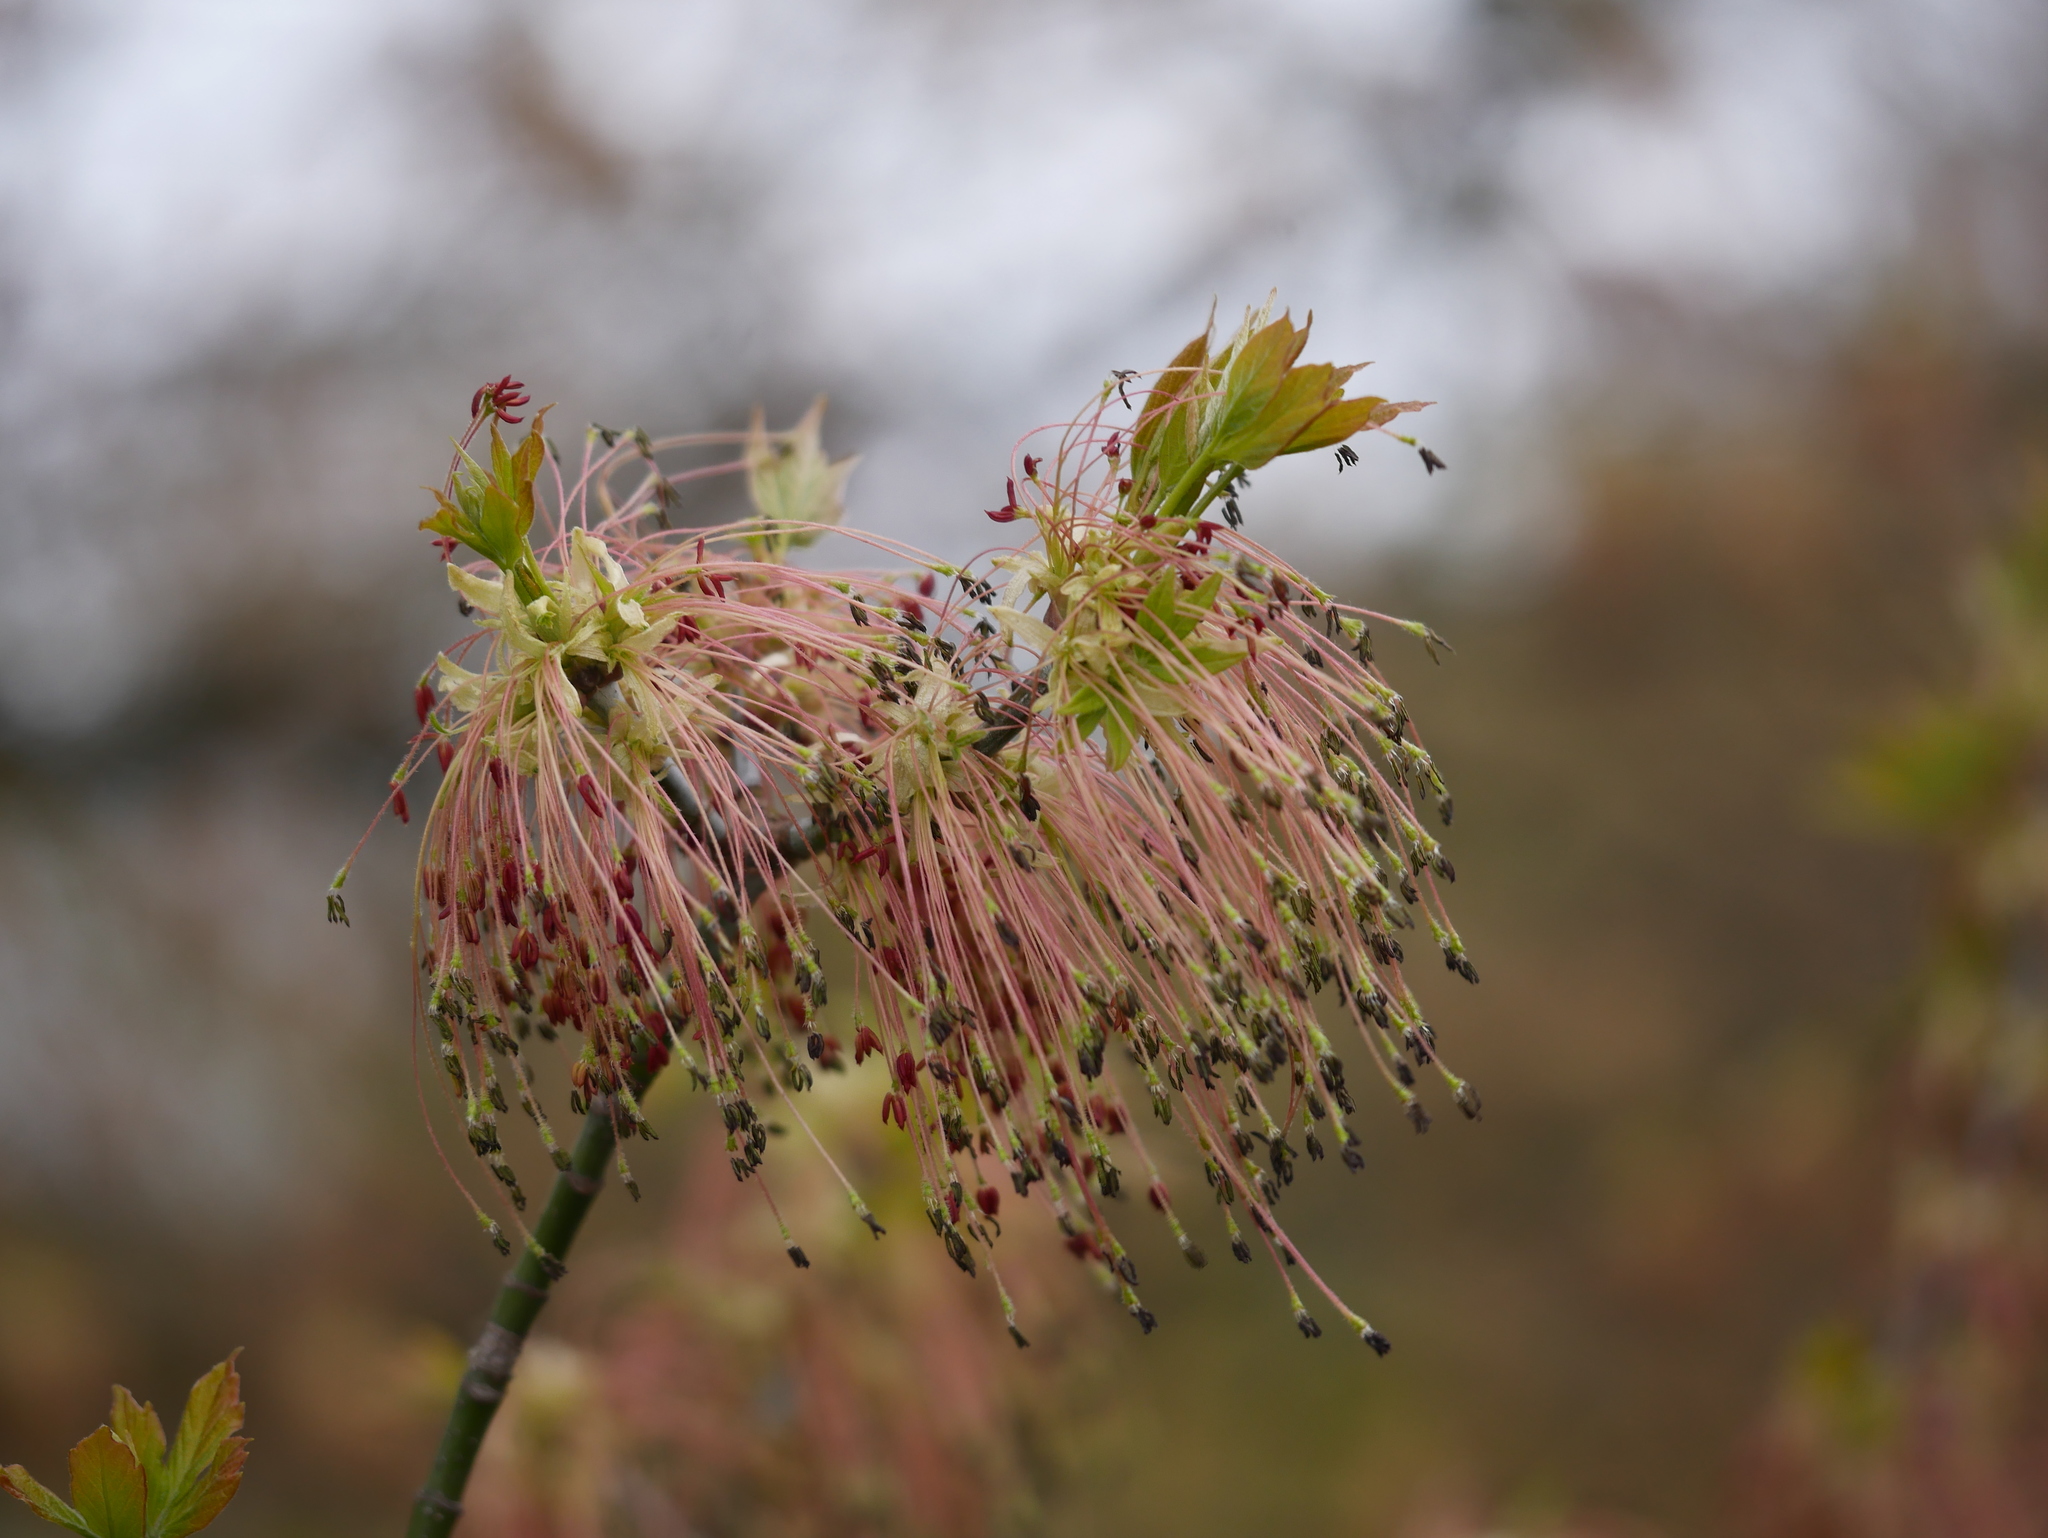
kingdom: Plantae
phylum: Tracheophyta
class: Magnoliopsida
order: Sapindales
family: Sapindaceae
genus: Acer
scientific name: Acer negundo
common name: Ashleaf maple
